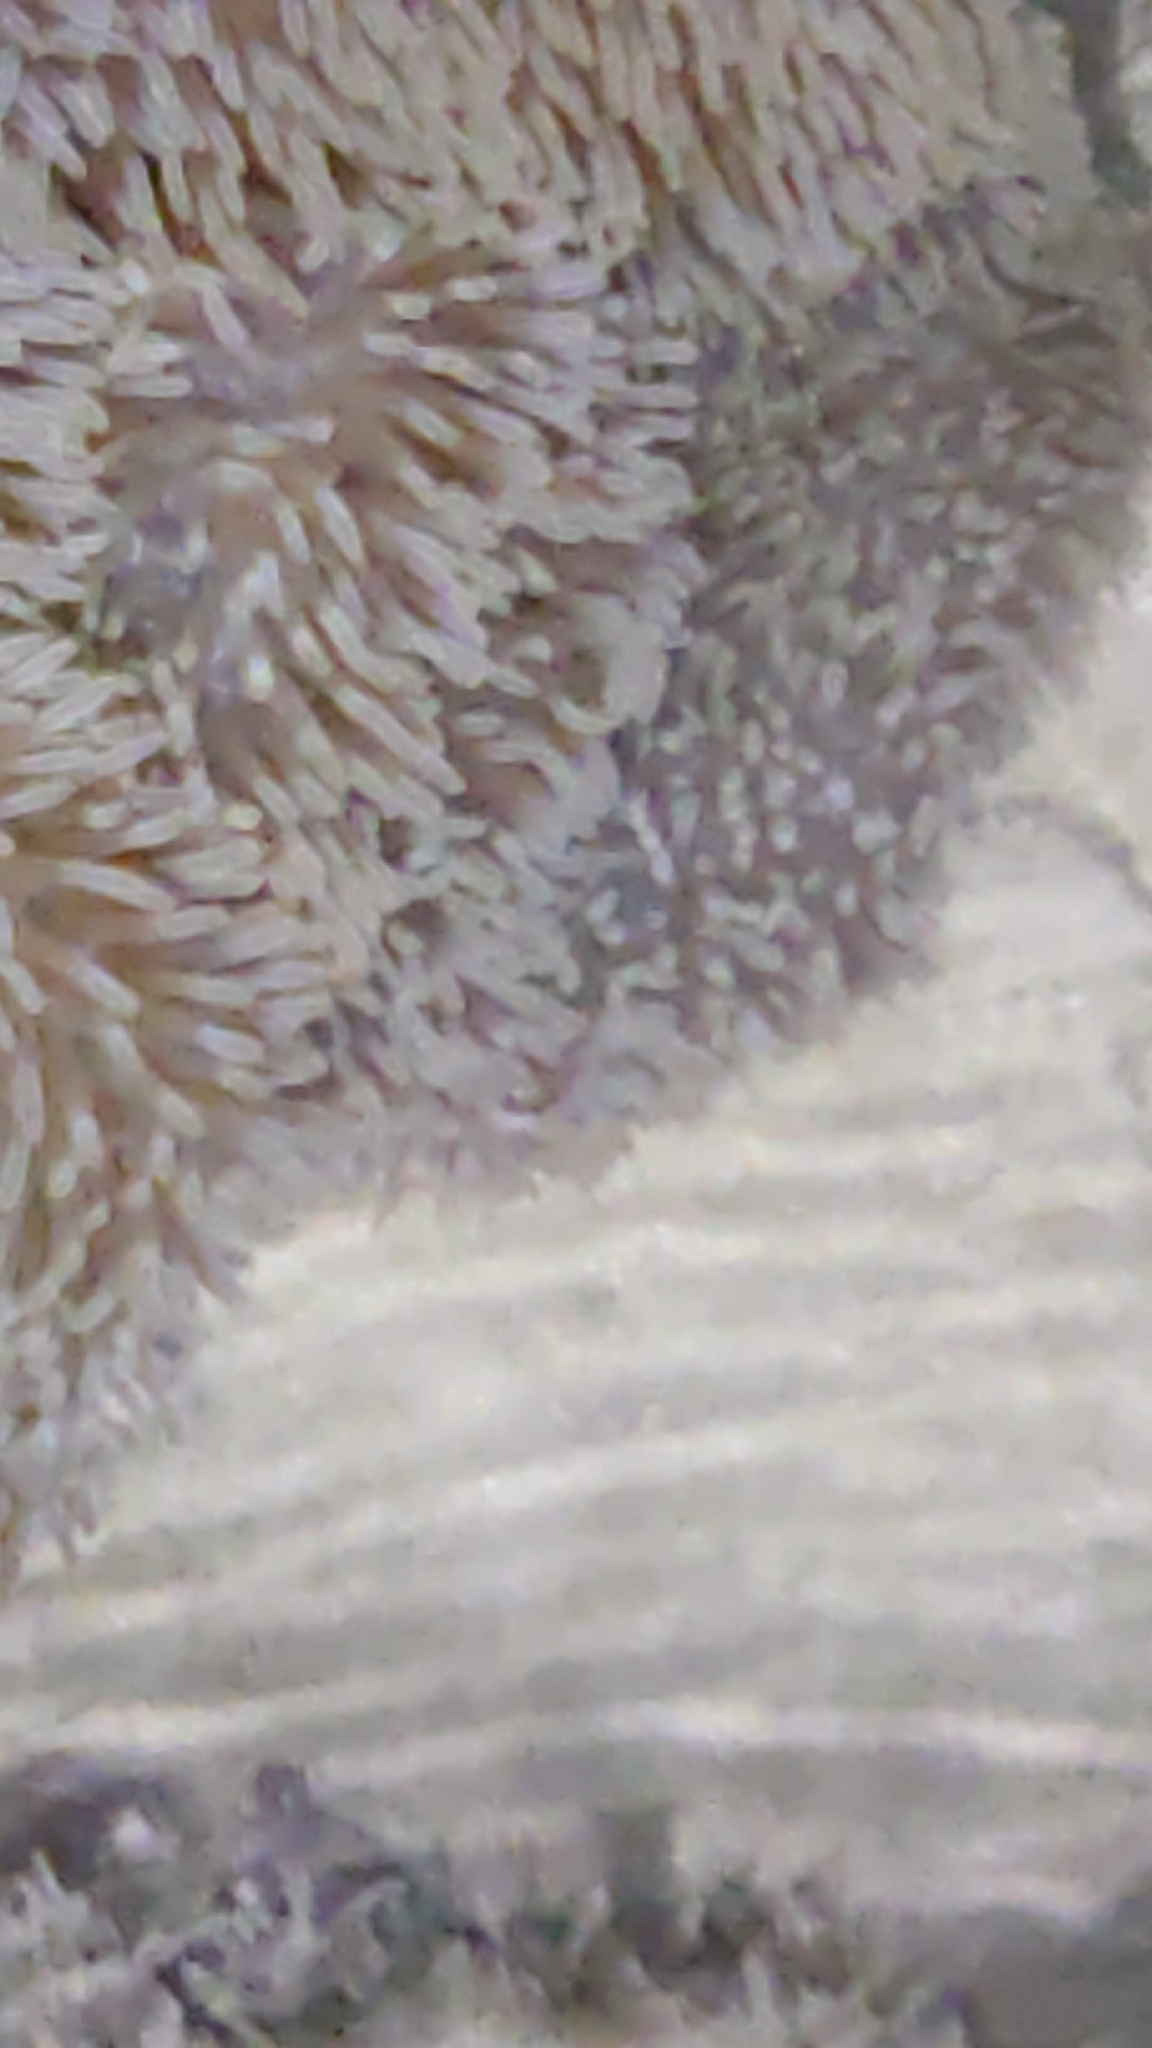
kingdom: Animalia
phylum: Chordata
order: Perciformes
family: Pomacentridae
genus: Amphiprion
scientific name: Amphiprion ocellaris
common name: Clown anemonefish
